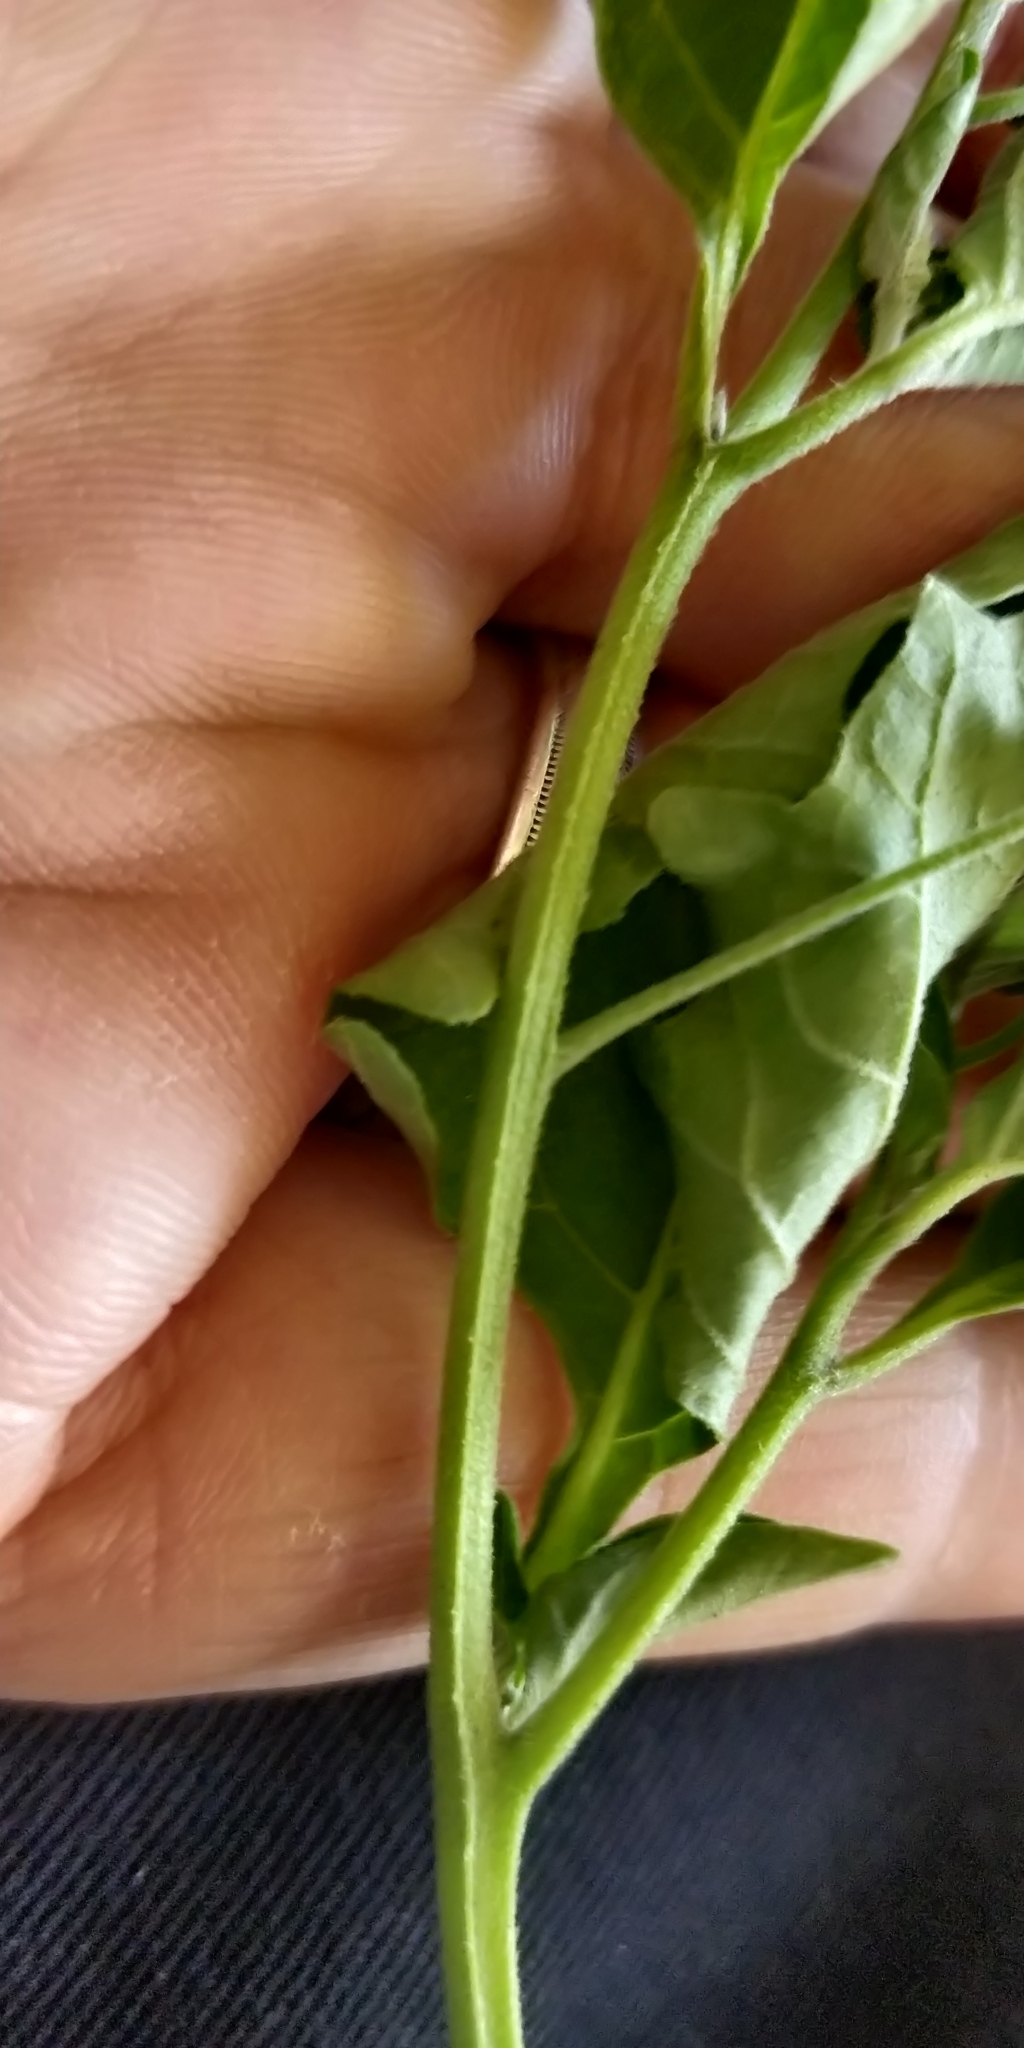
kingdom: Plantae
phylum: Tracheophyta
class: Magnoliopsida
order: Solanales
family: Solanaceae
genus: Solanum
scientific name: Solanum interius
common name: Plains black nightshade
